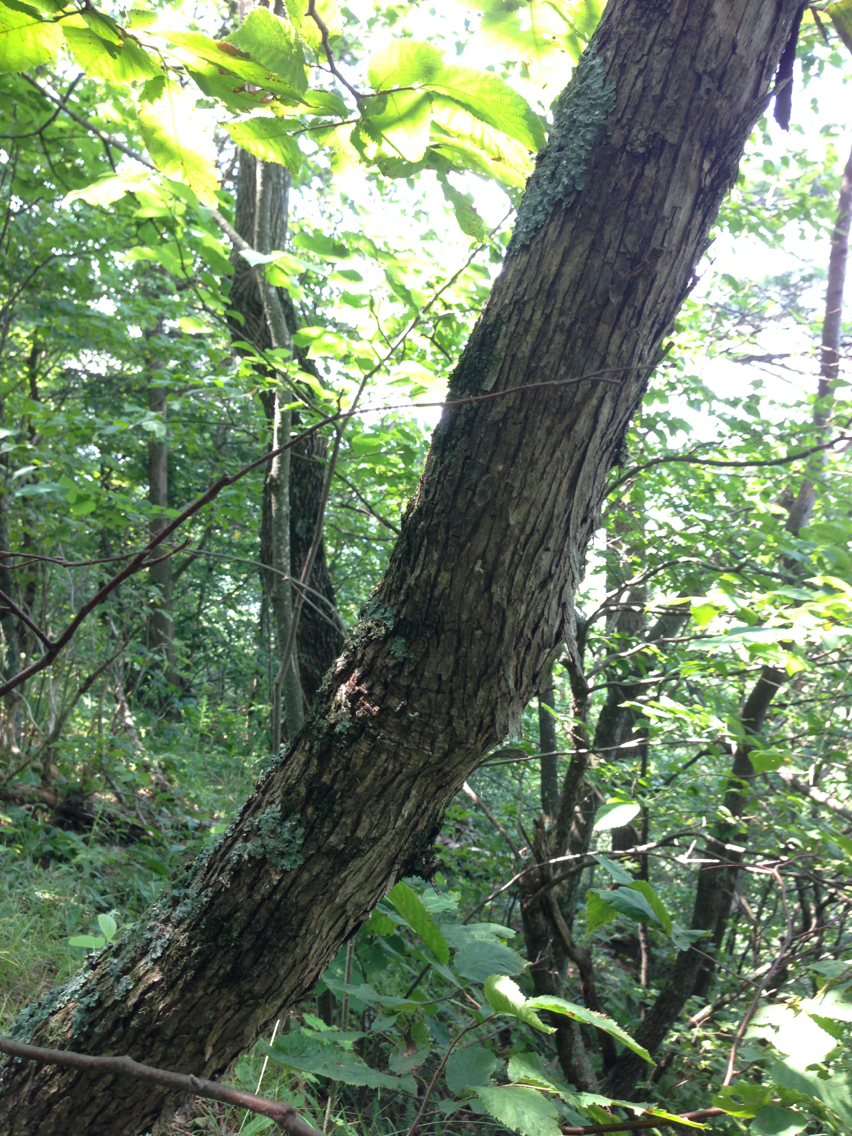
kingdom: Plantae
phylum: Tracheophyta
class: Magnoliopsida
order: Fagales
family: Betulaceae
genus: Ostrya
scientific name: Ostrya virginiana
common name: Ironwood
